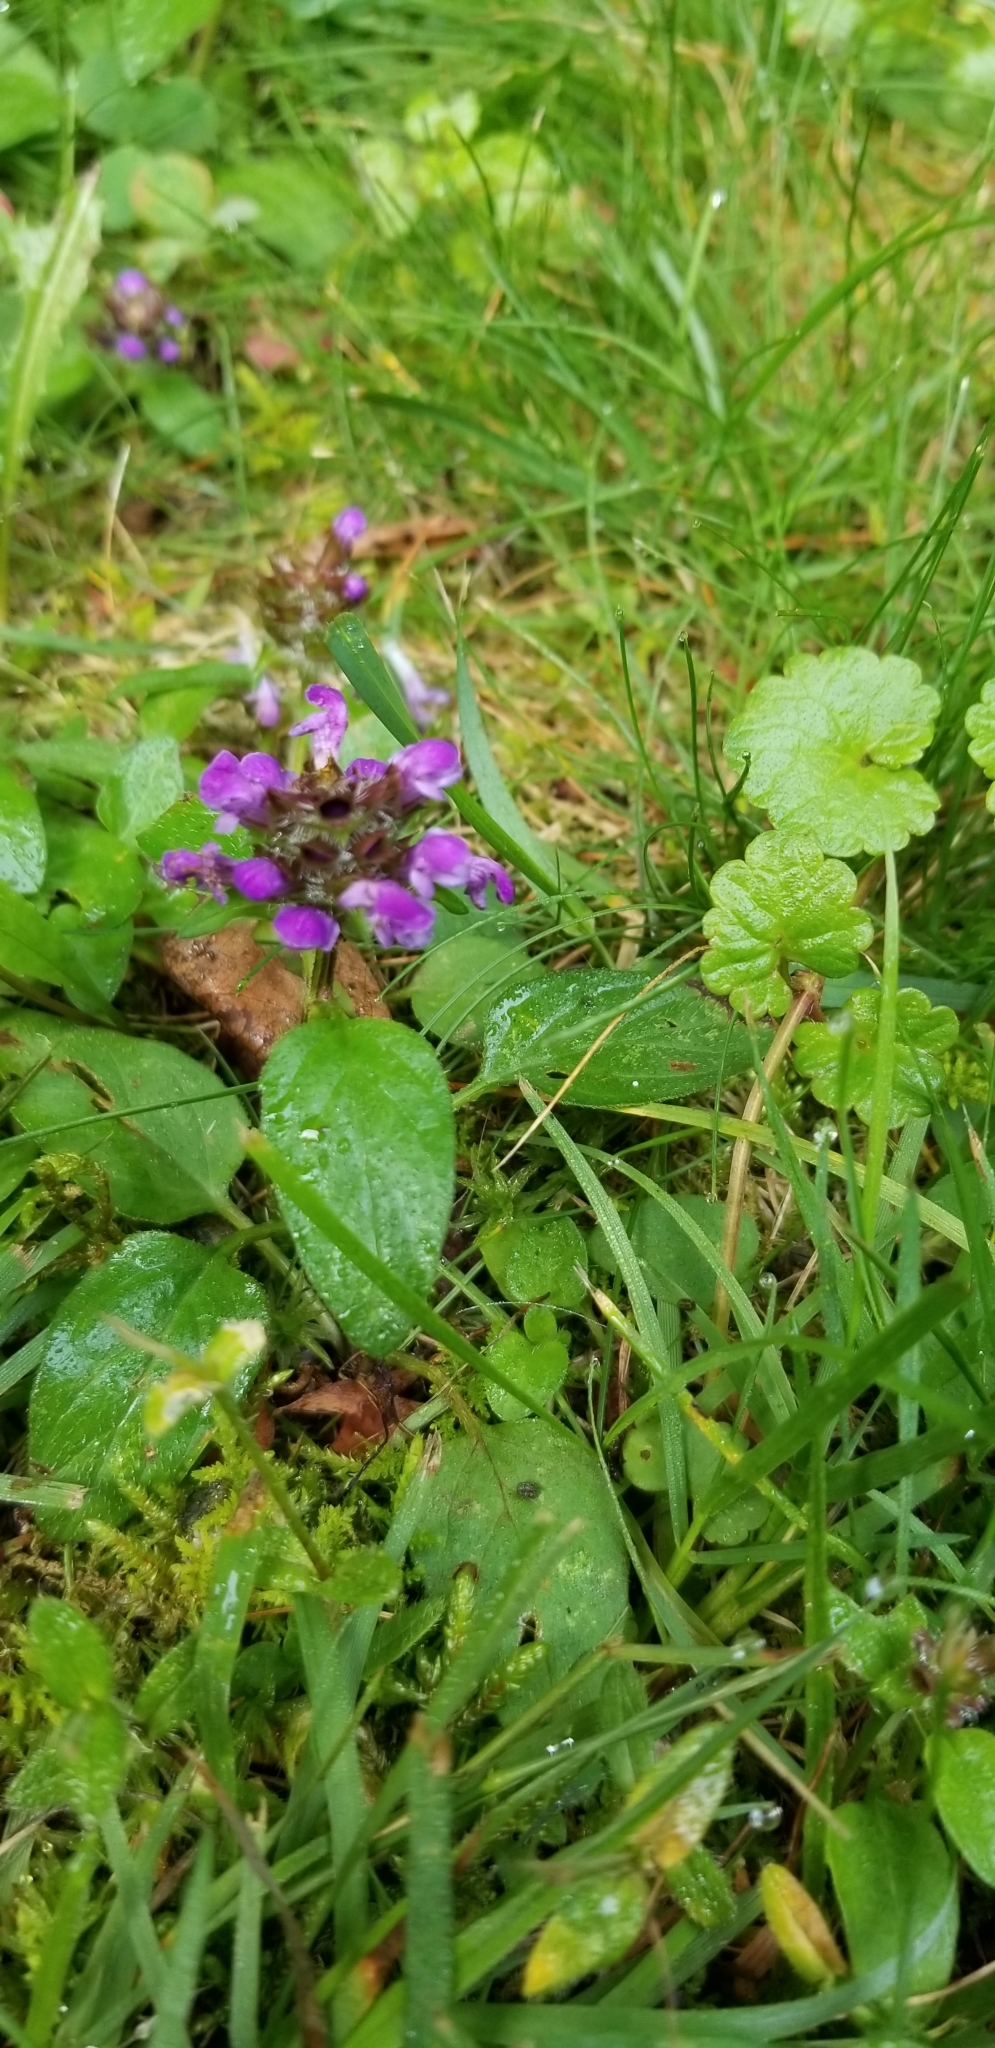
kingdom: Plantae
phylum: Tracheophyta
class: Magnoliopsida
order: Lamiales
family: Lamiaceae
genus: Prunella
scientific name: Prunella vulgaris
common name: Heal-all
